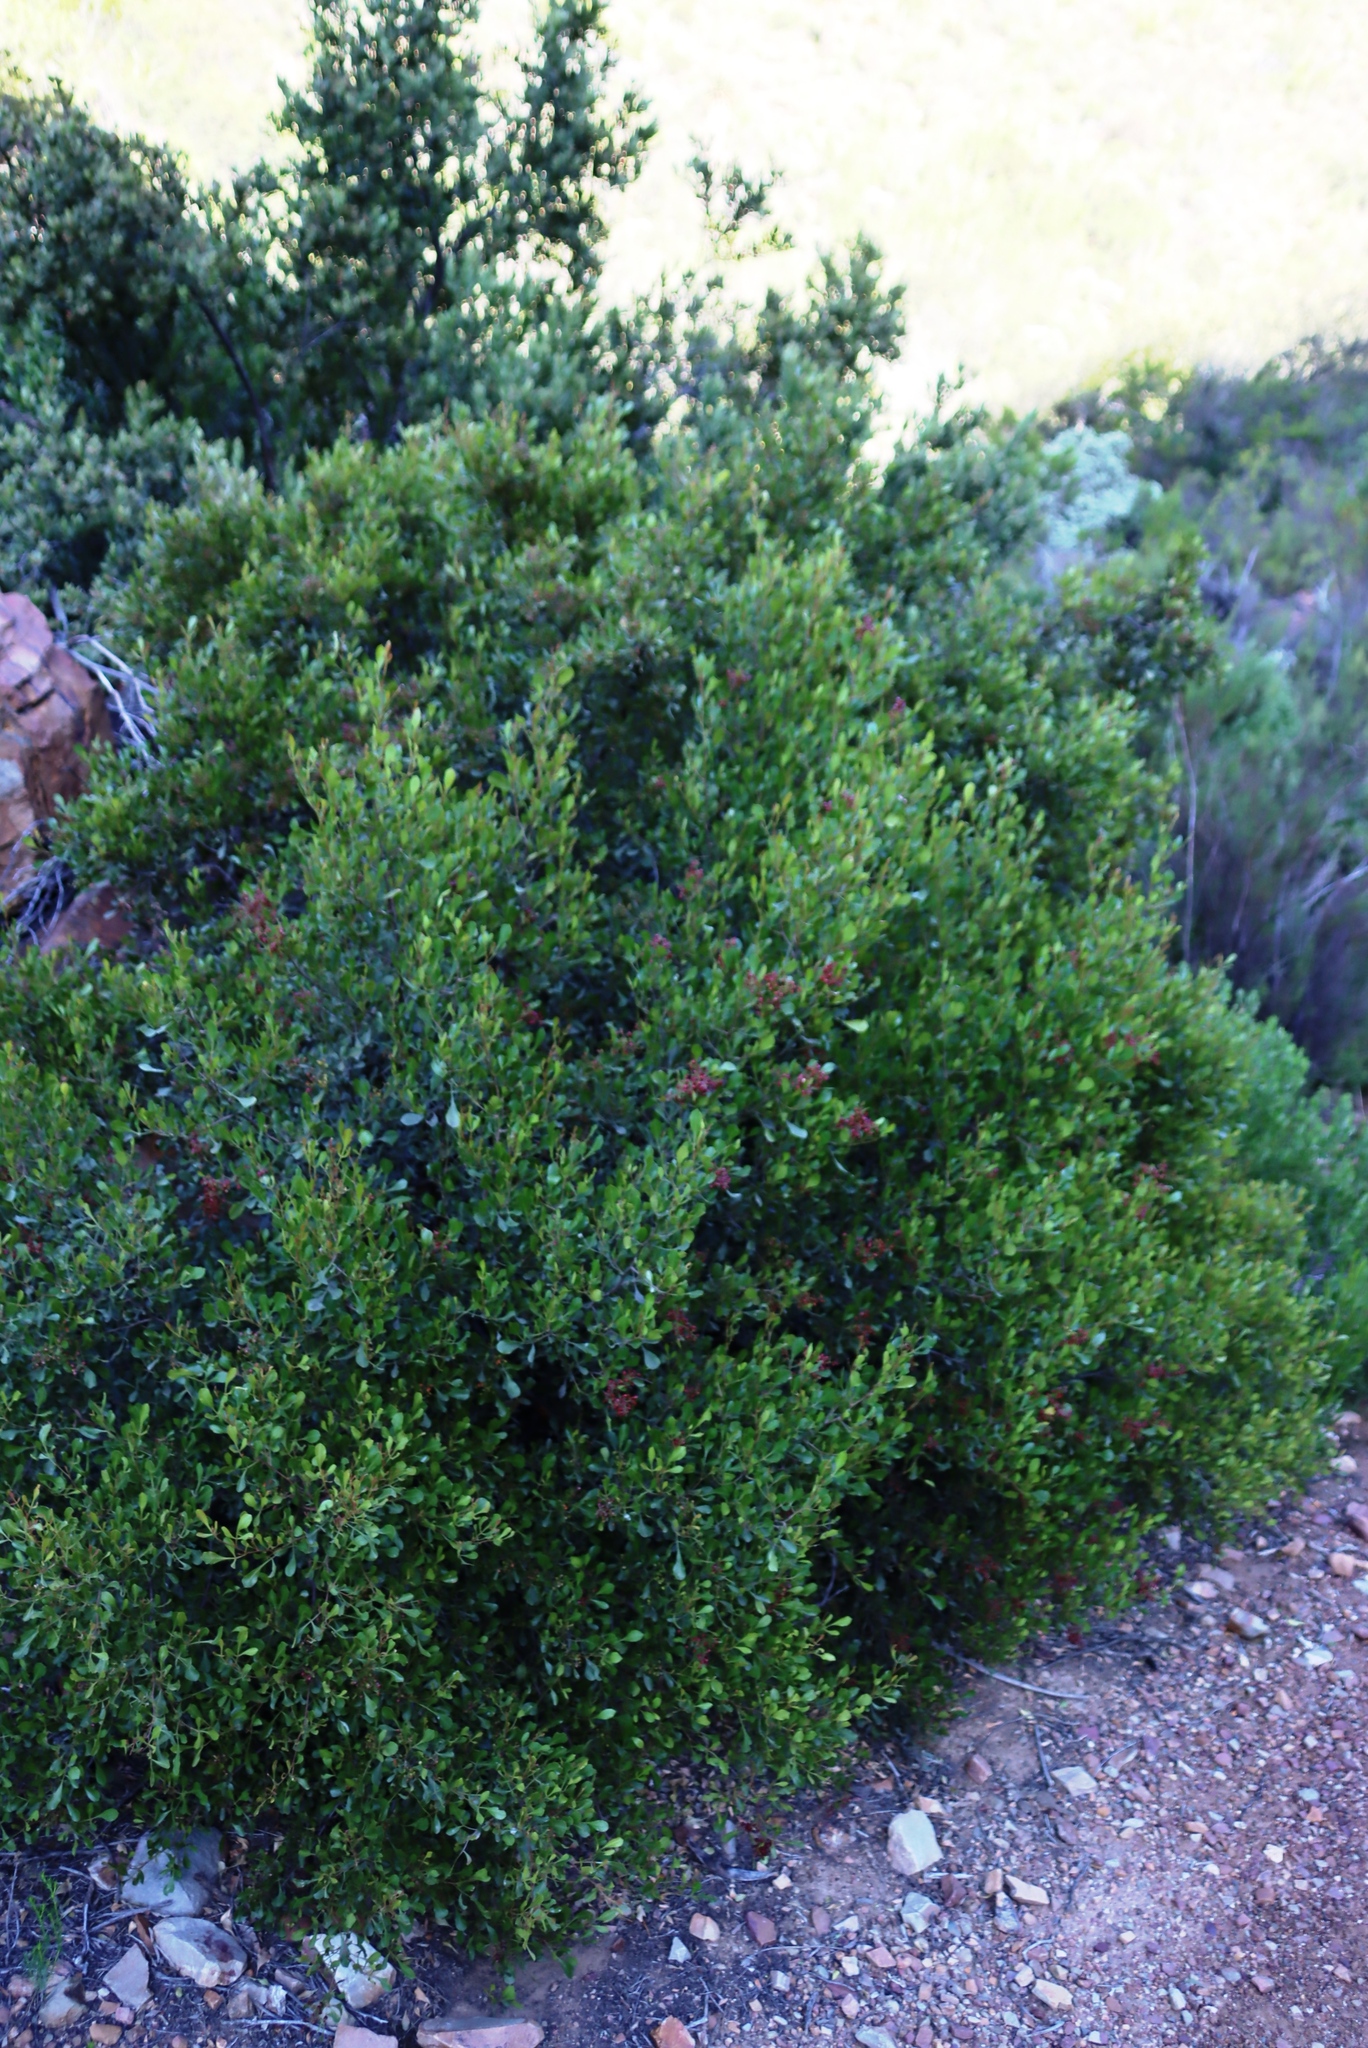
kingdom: Plantae
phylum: Tracheophyta
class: Magnoliopsida
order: Sapindales
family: Anacardiaceae
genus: Searsia
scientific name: Searsia pallens
